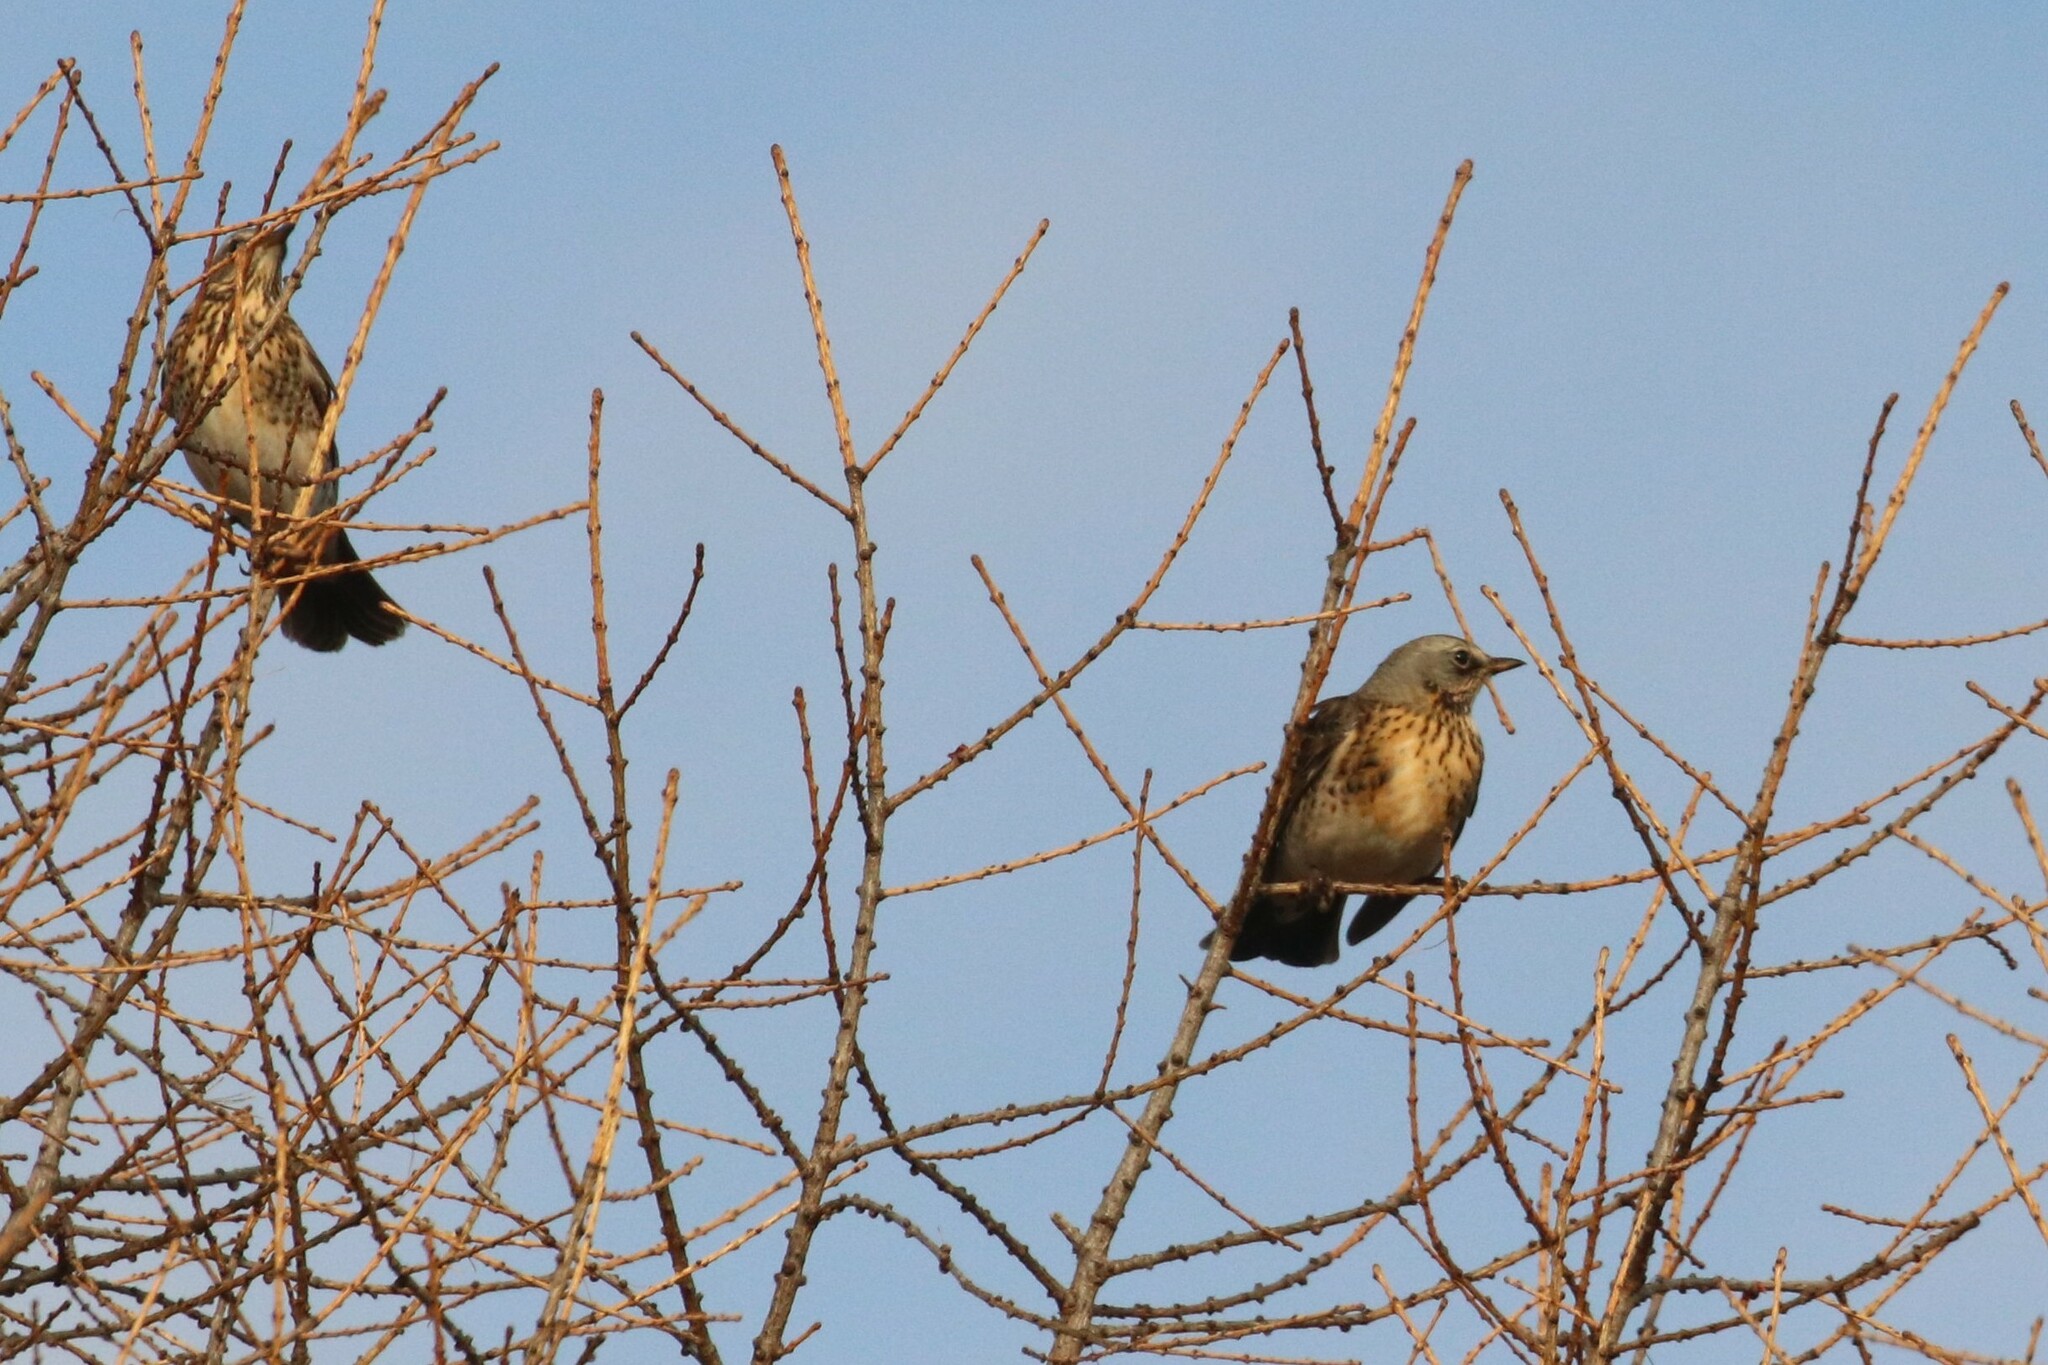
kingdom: Animalia
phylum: Chordata
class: Aves
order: Passeriformes
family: Turdidae
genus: Turdus
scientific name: Turdus pilaris
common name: Fieldfare
